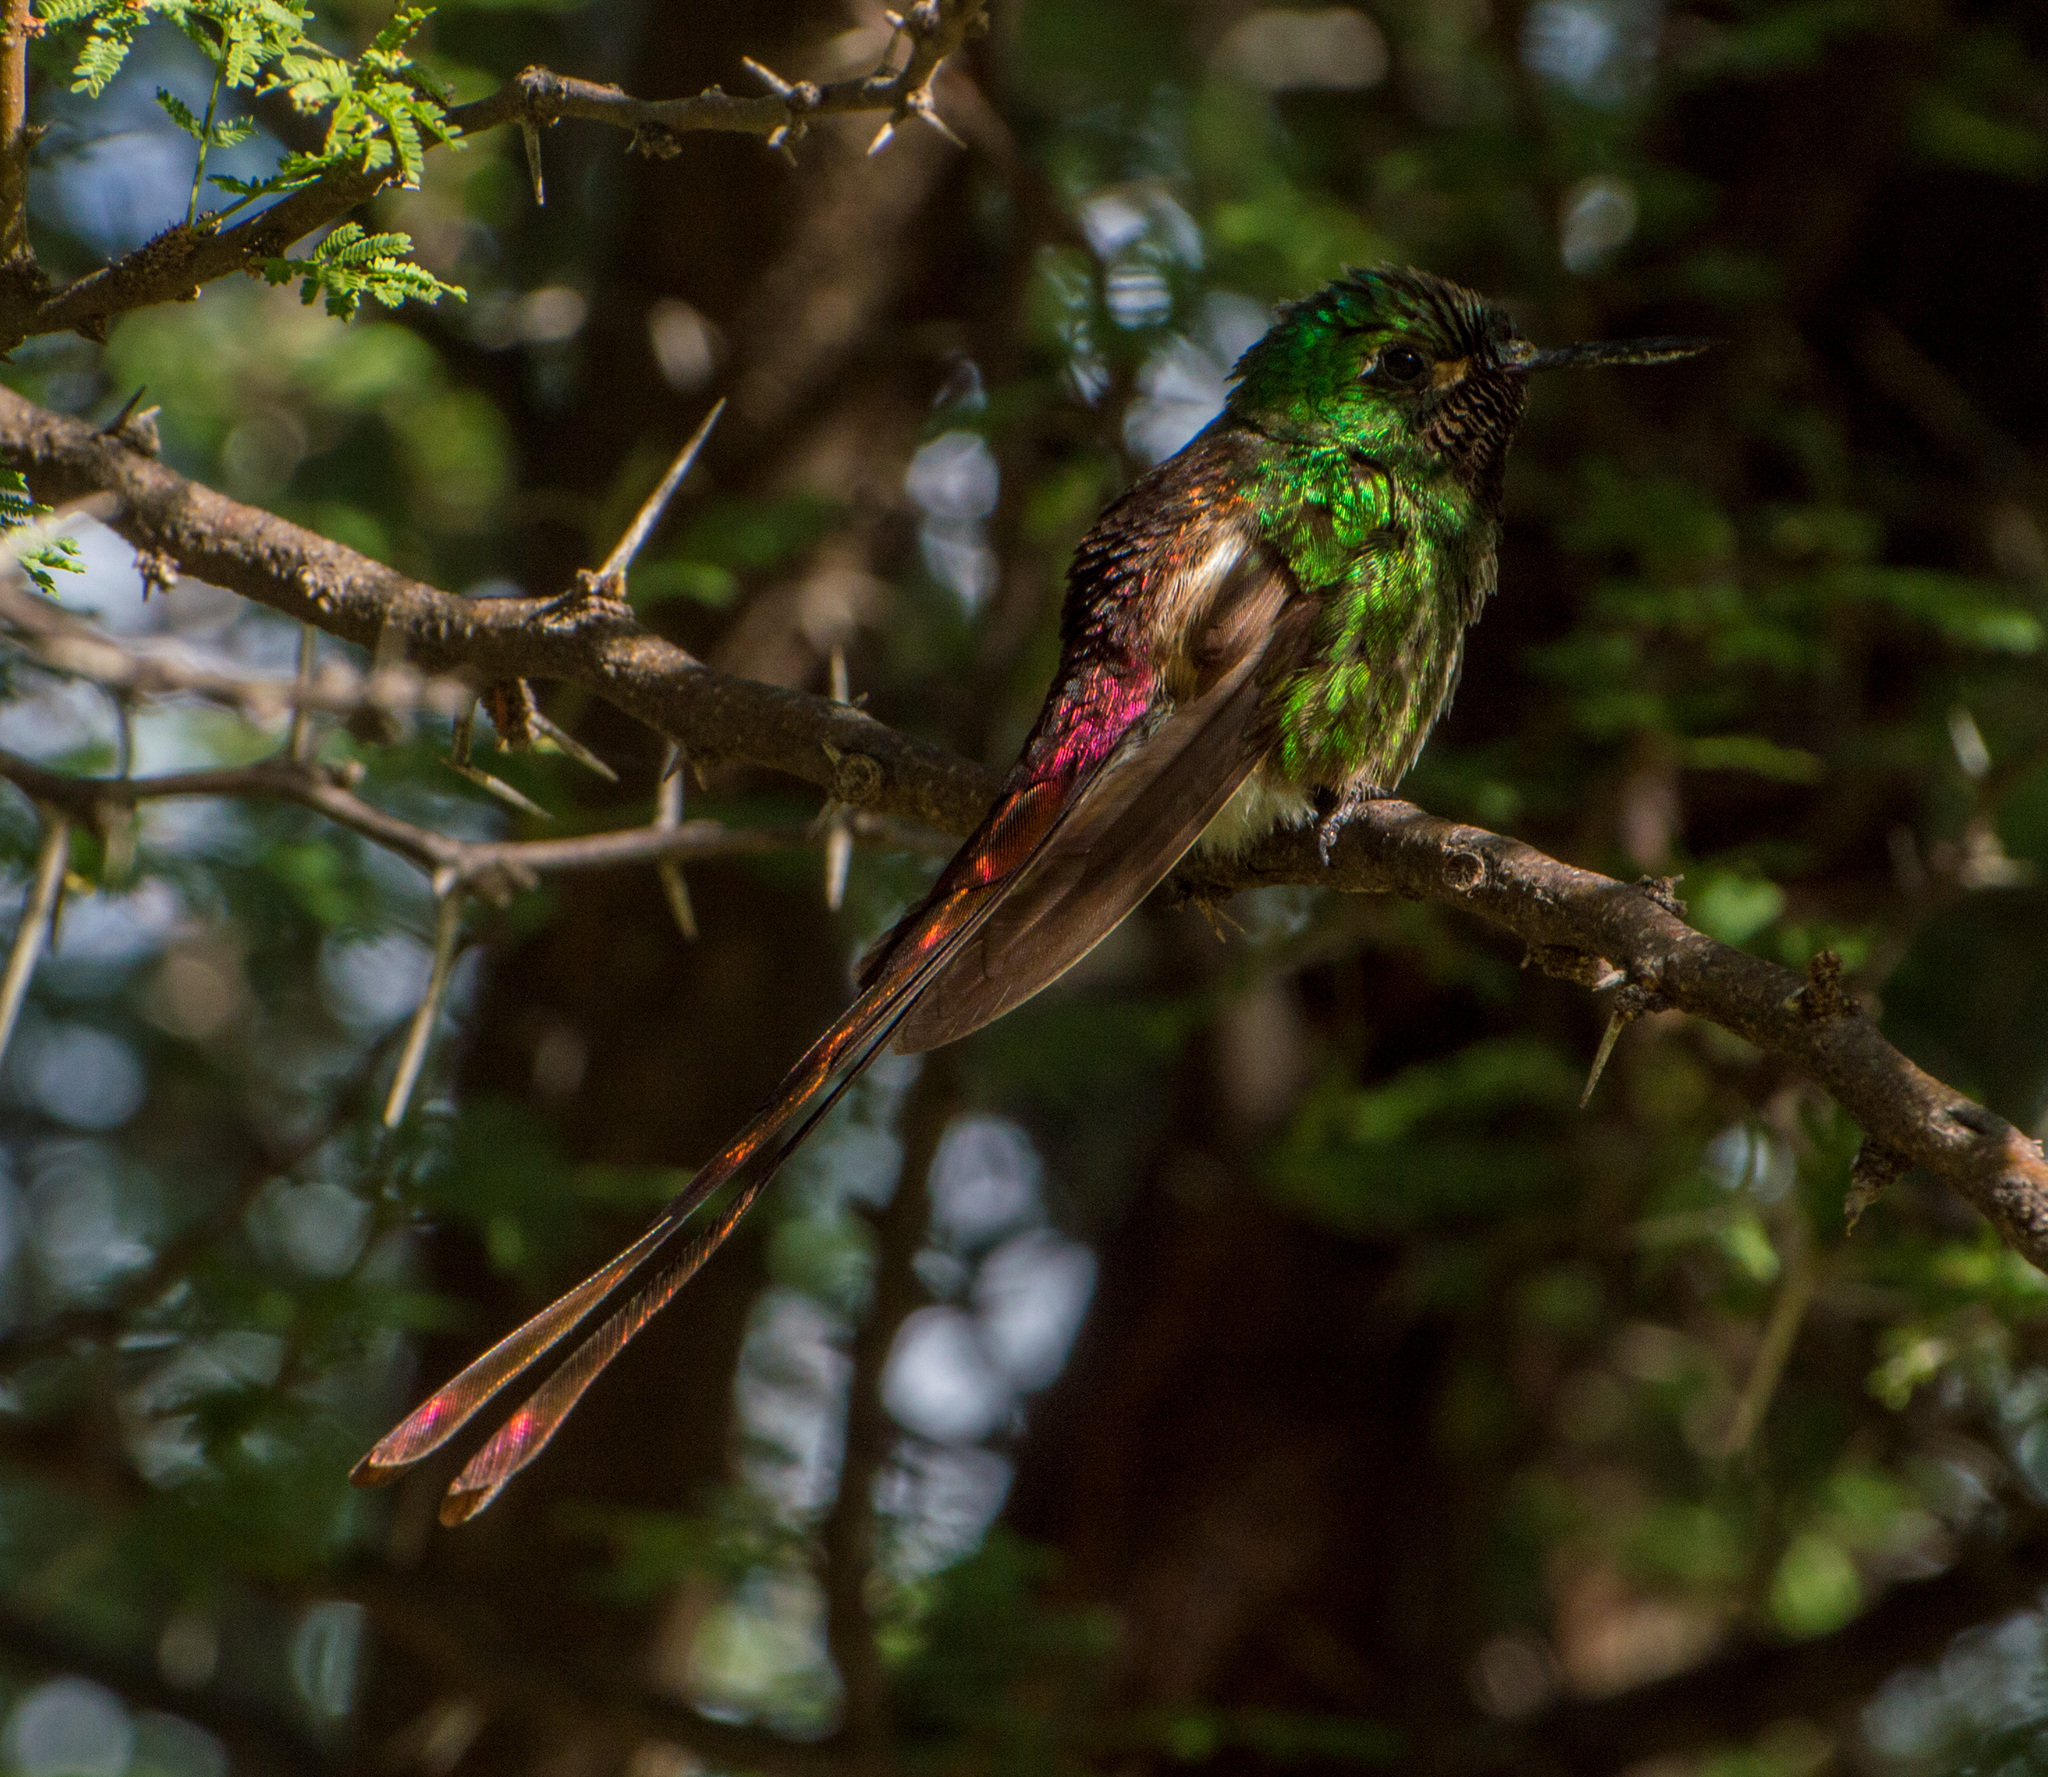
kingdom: Animalia
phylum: Chordata
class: Aves
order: Apodiformes
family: Trochilidae
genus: Sappho
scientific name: Sappho sparganurus
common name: Red-tailed comet
